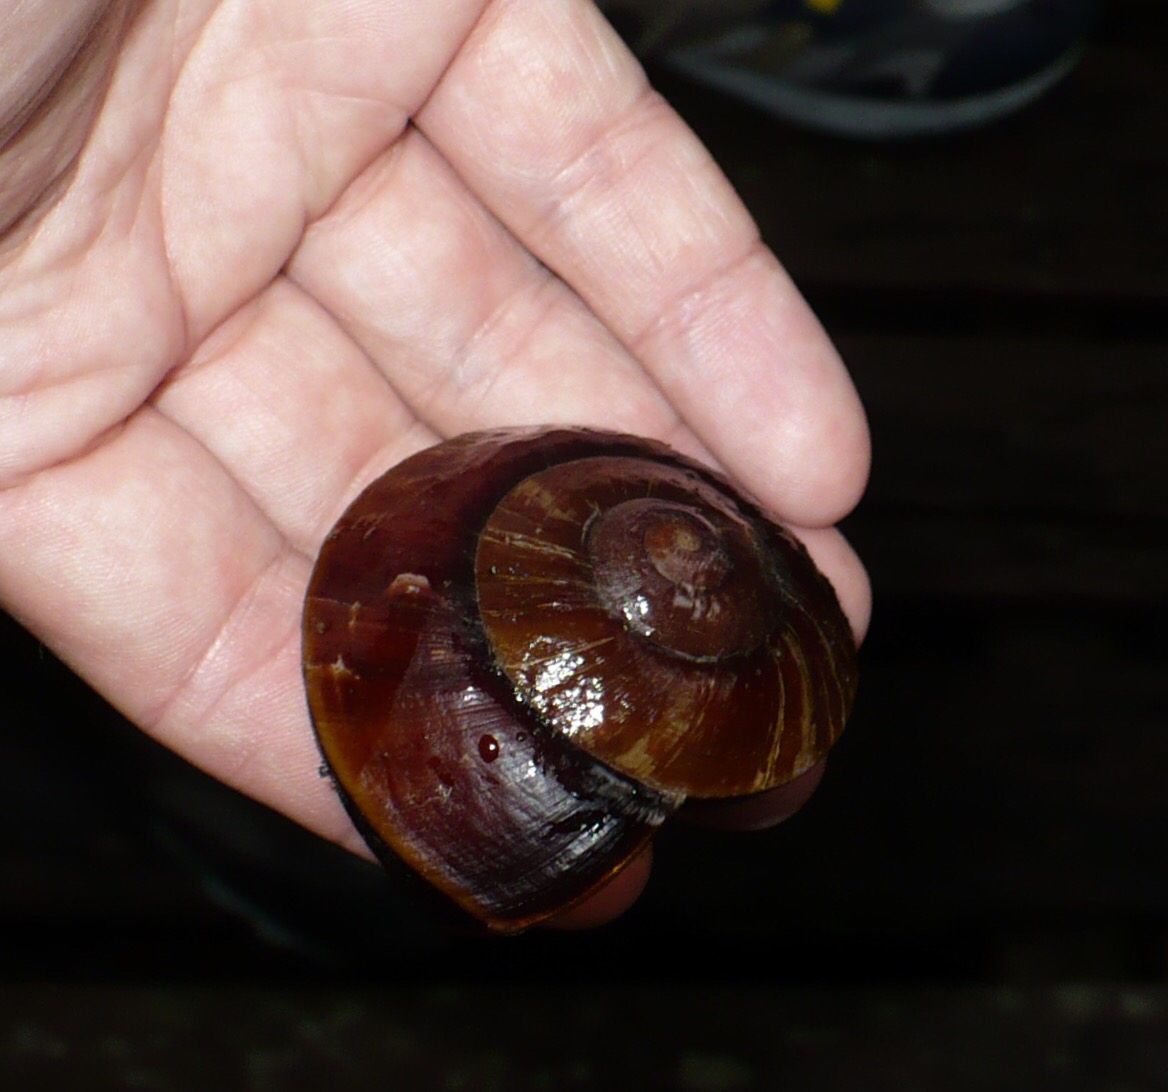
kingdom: Animalia
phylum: Mollusca
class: Gastropoda
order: Stylommatophora
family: Chronidae
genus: Exrhysota
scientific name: Exrhysota brookei
